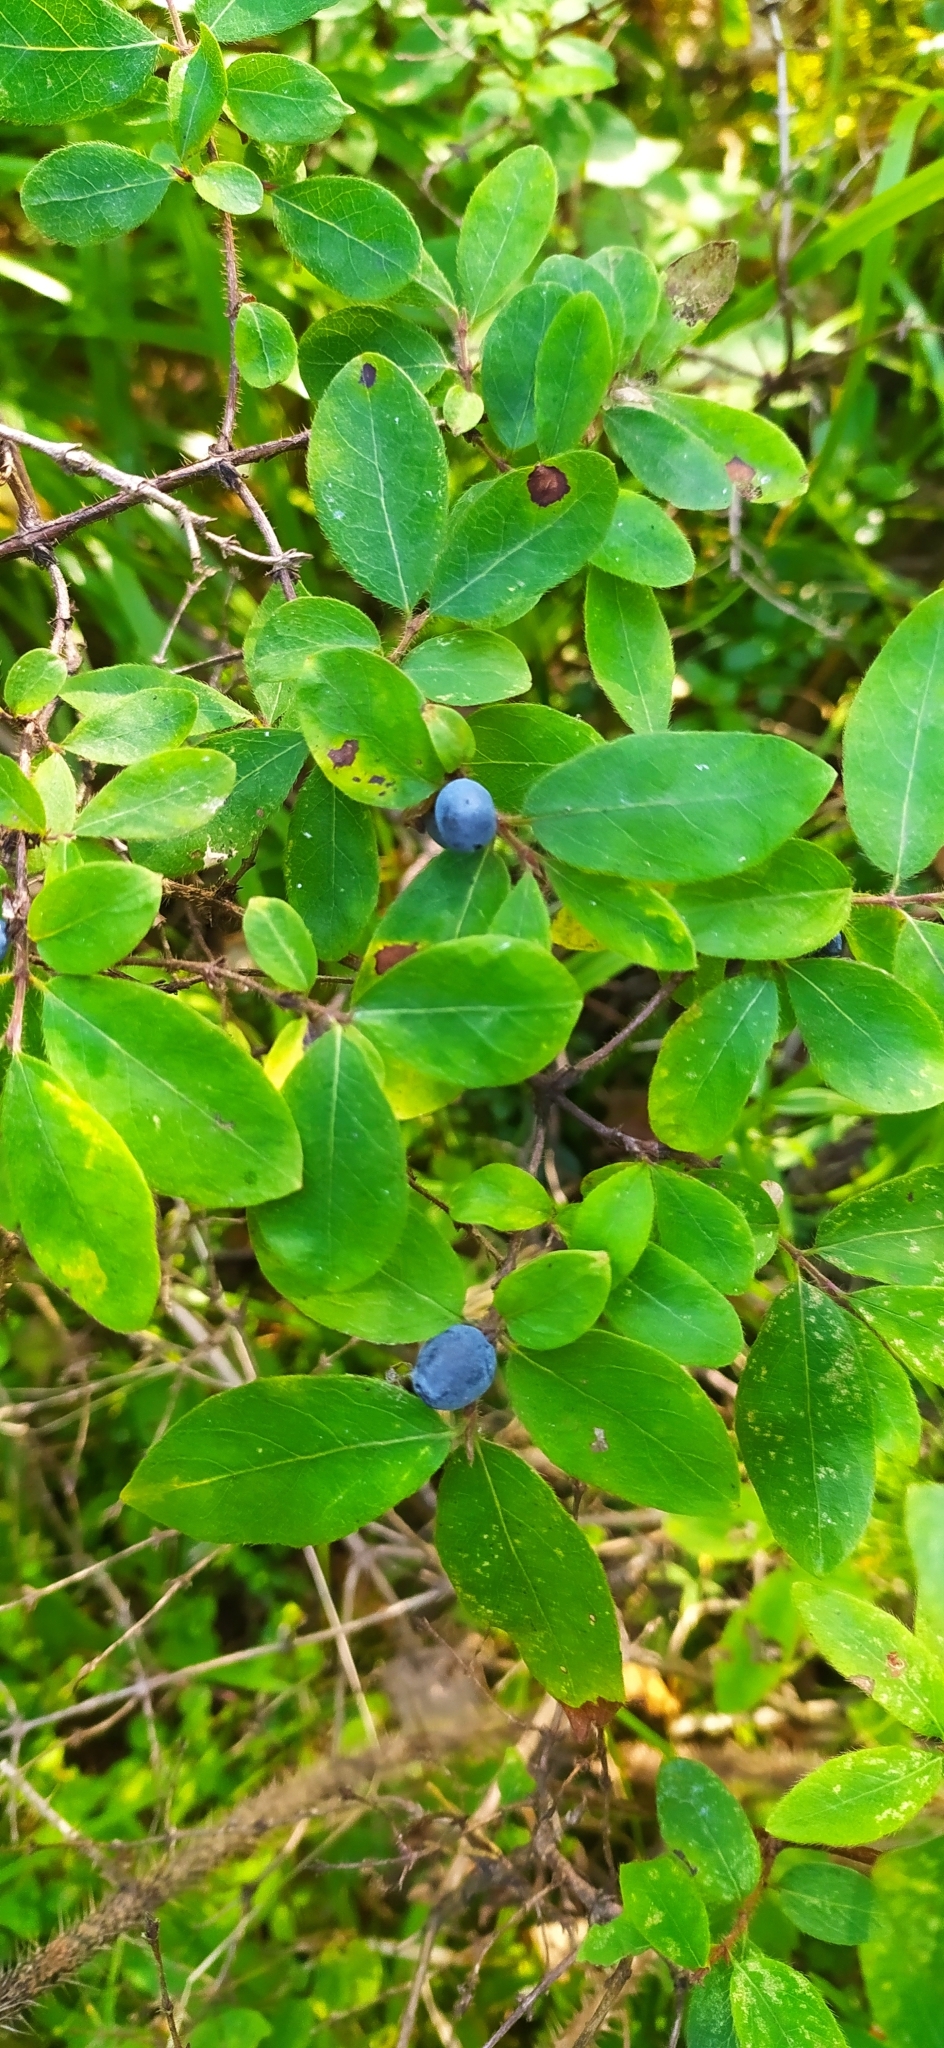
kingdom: Plantae
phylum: Tracheophyta
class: Magnoliopsida
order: Dipsacales
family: Caprifoliaceae
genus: Lonicera
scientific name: Lonicera caerulea
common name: Blue honeysuckle
